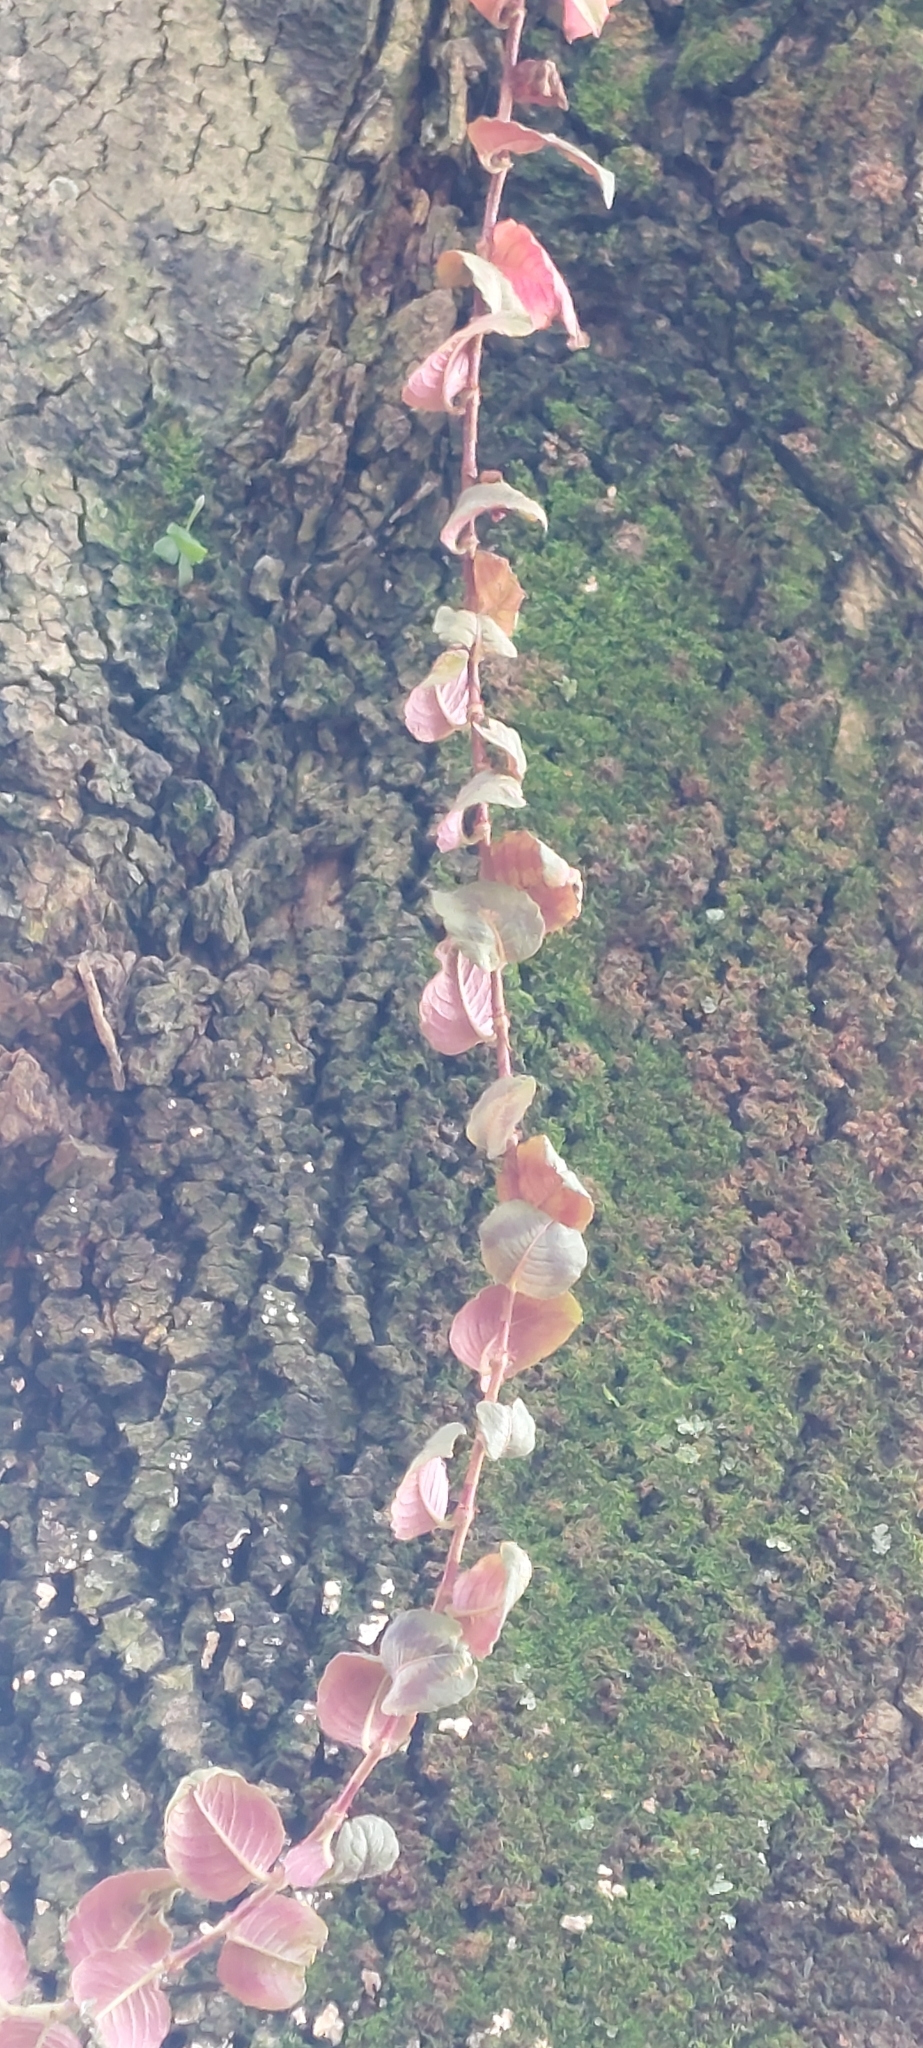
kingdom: Plantae
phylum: Tracheophyta
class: Magnoliopsida
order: Caryophyllales
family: Polygonaceae
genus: Persicaria
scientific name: Persicaria capitata
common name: Pinkhead smartweed
